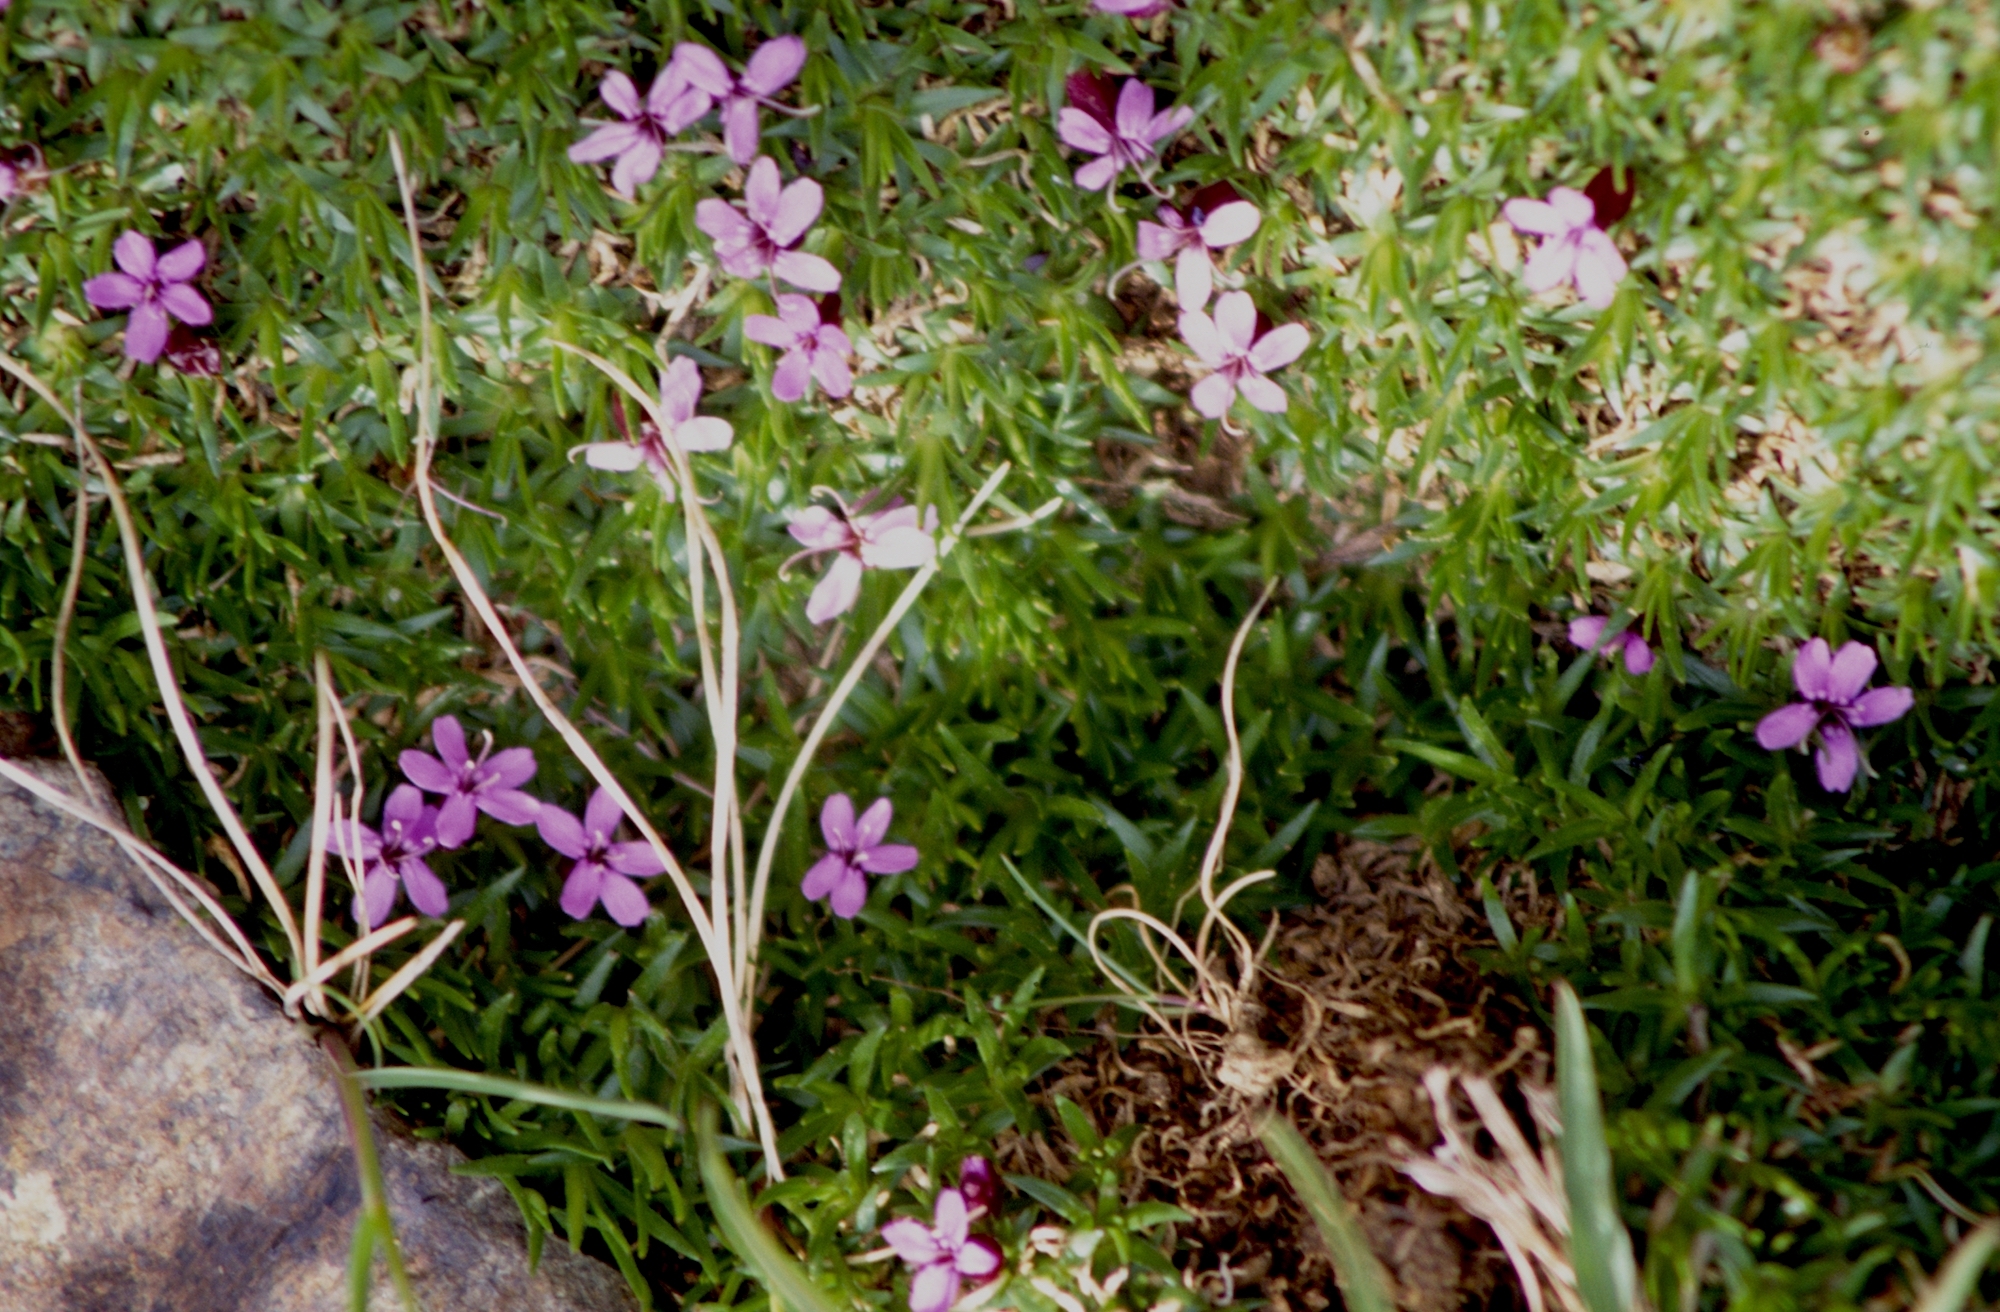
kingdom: Plantae
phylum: Tracheophyta
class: Magnoliopsida
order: Caryophyllales
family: Caryophyllaceae
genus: Silene
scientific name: Silene acaulis
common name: Moss campion
